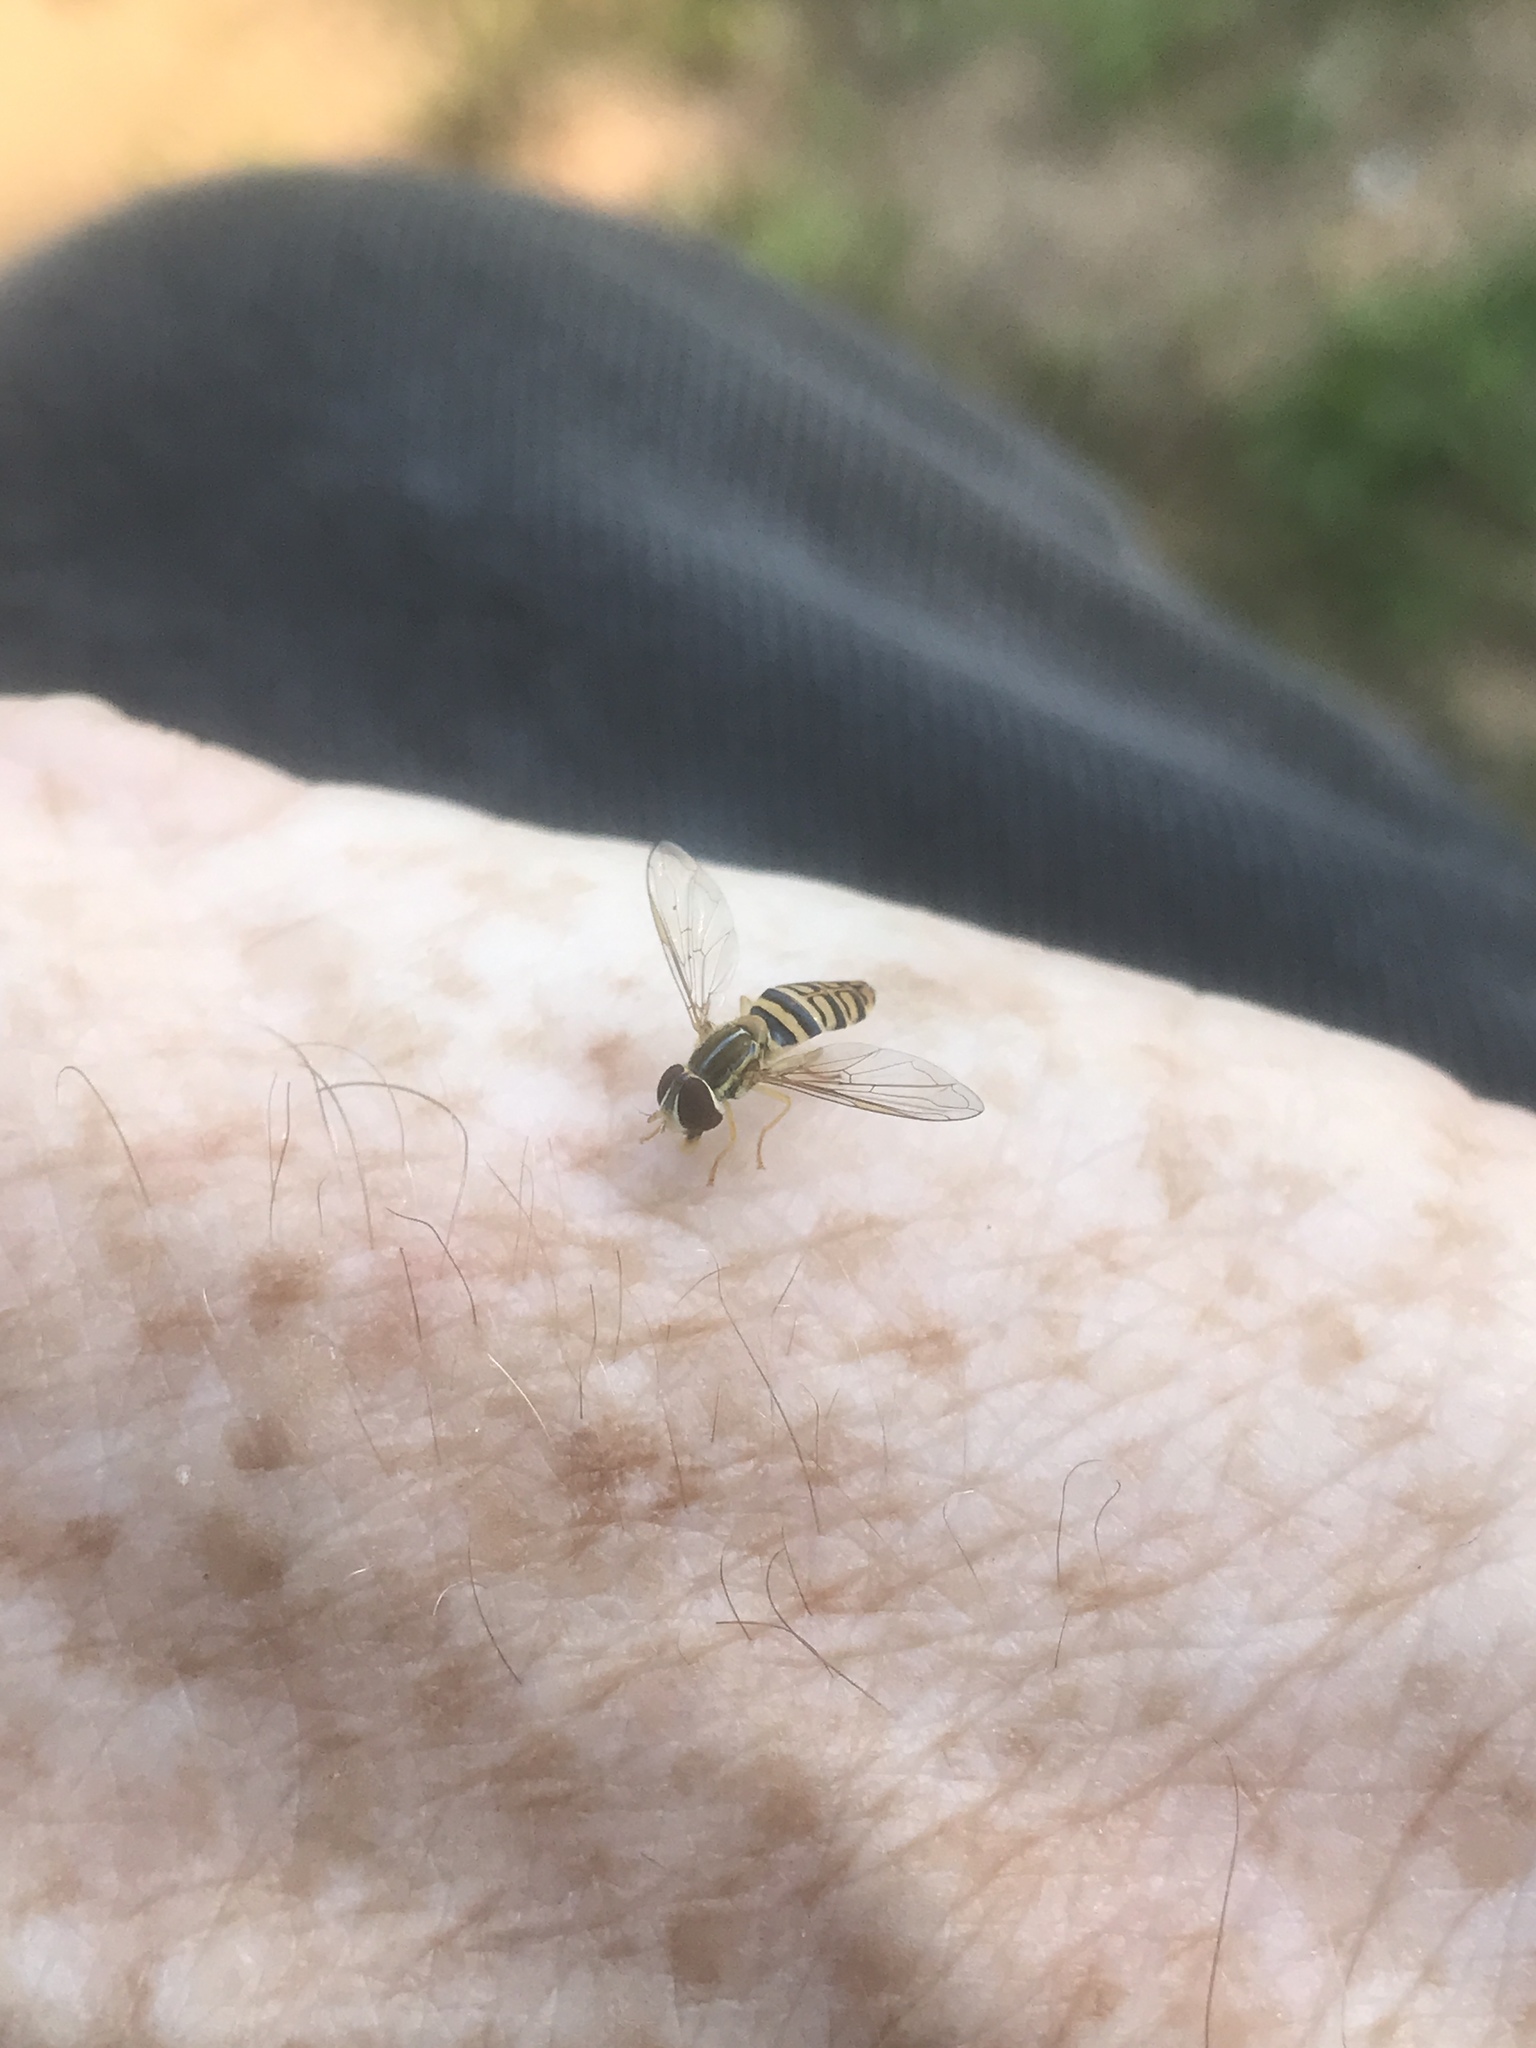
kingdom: Animalia
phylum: Arthropoda
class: Insecta
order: Diptera
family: Syrphidae
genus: Toxomerus
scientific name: Toxomerus politus
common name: Maize calligrapher
